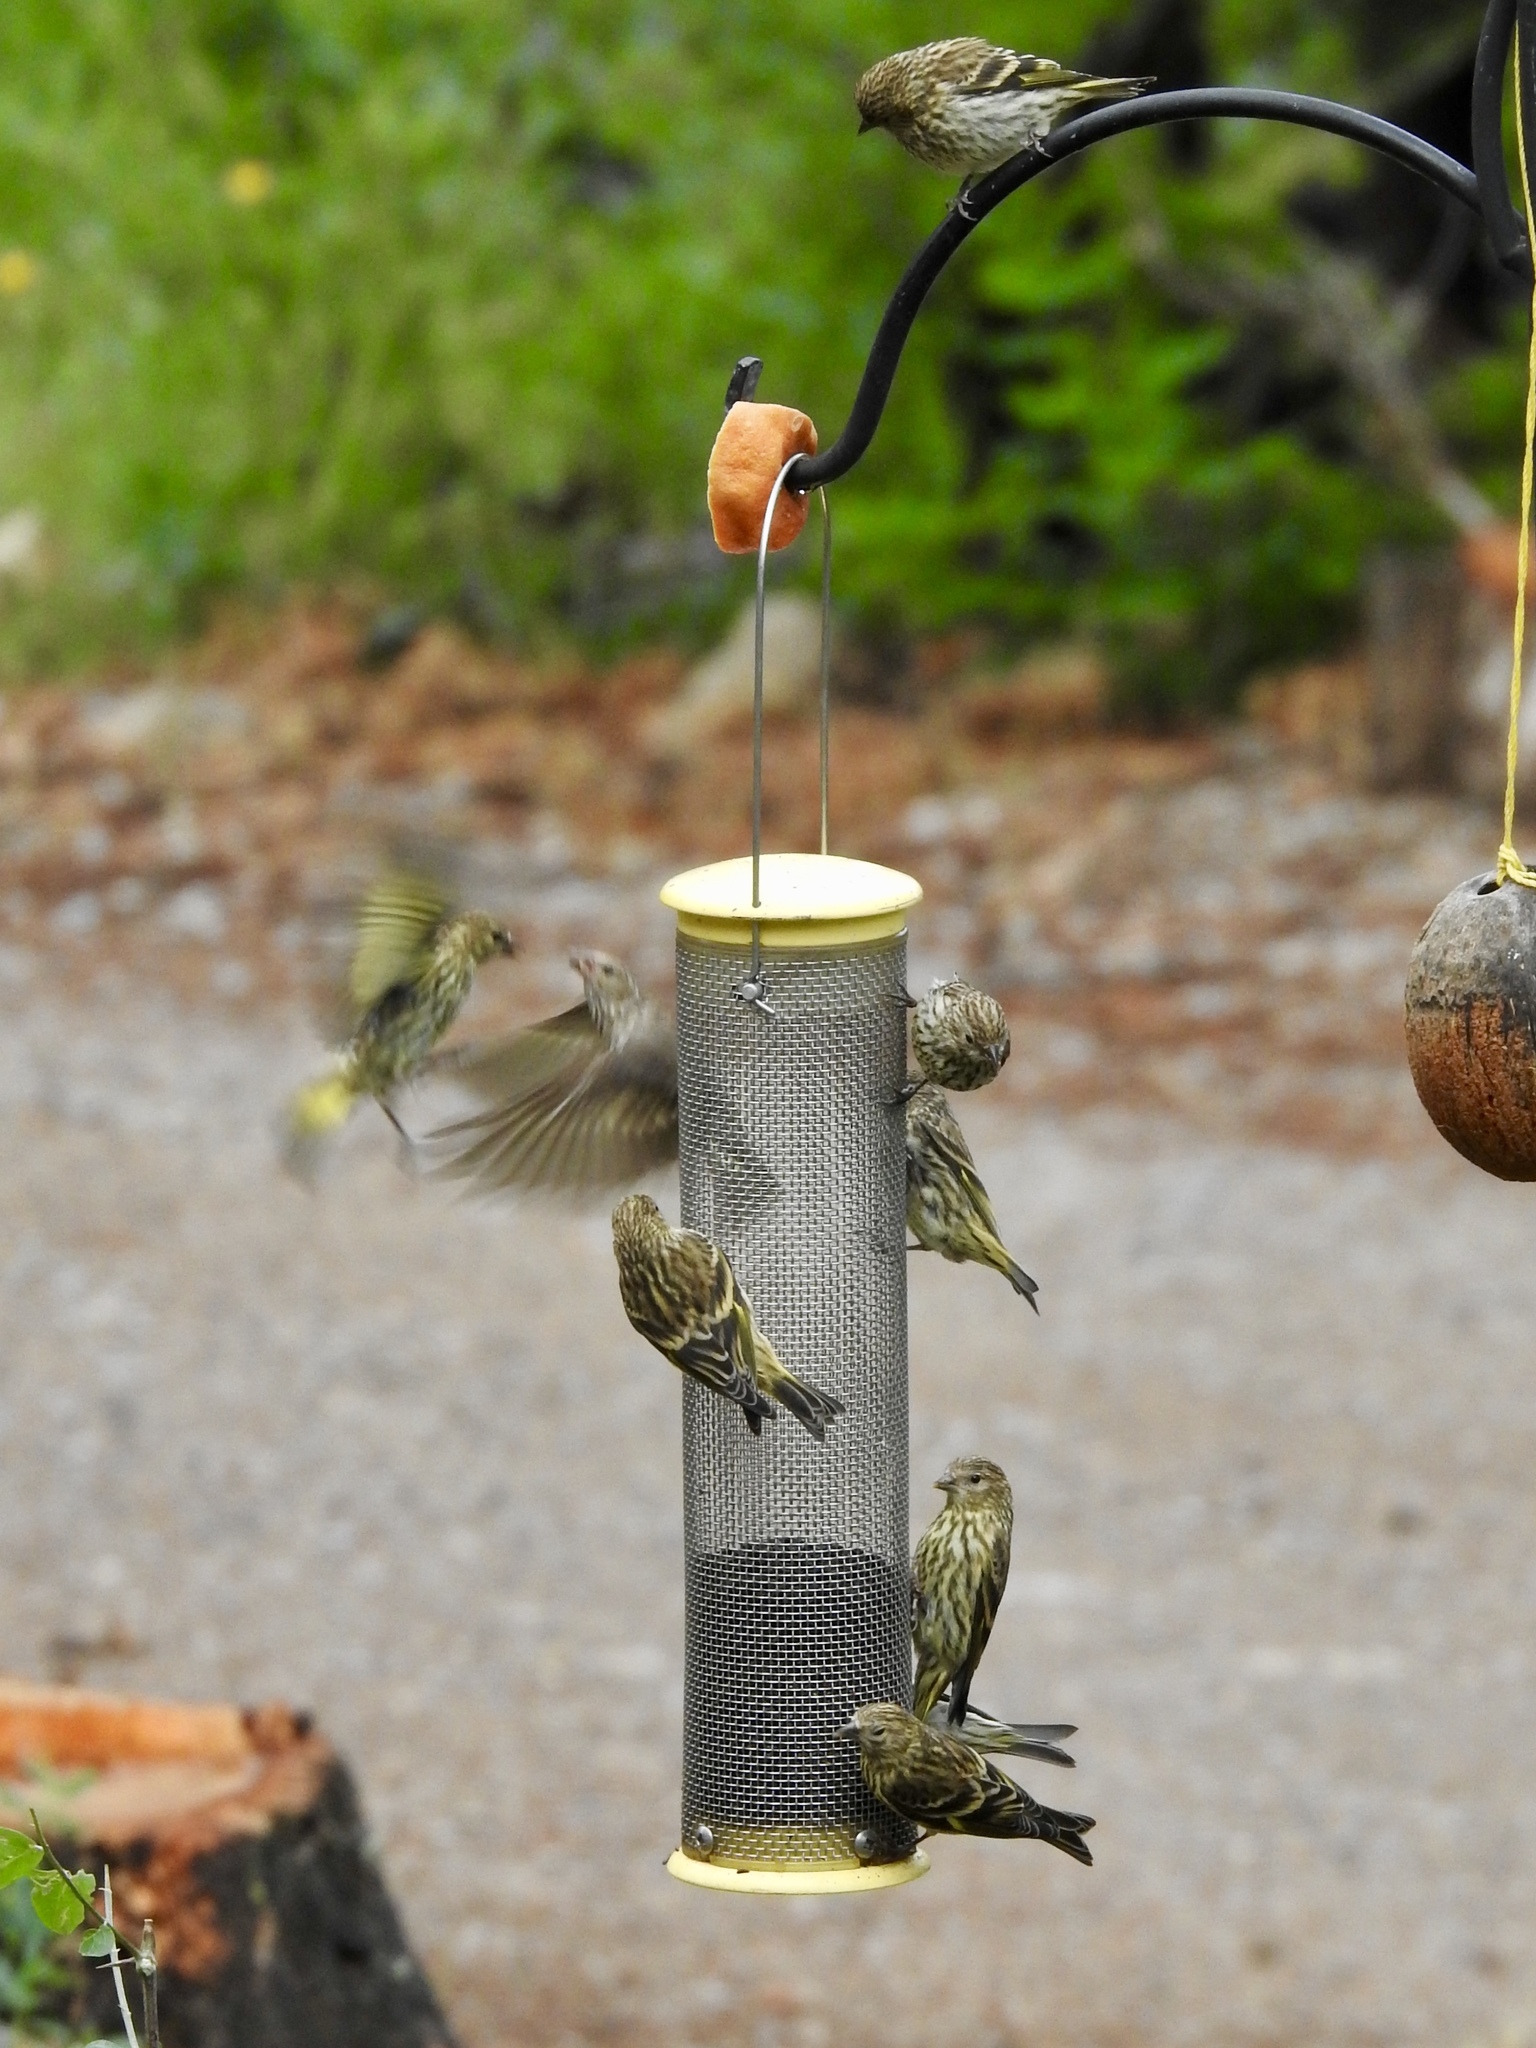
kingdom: Animalia
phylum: Chordata
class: Aves
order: Passeriformes
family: Fringillidae
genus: Spinus
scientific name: Spinus pinus
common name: Pine siskin
